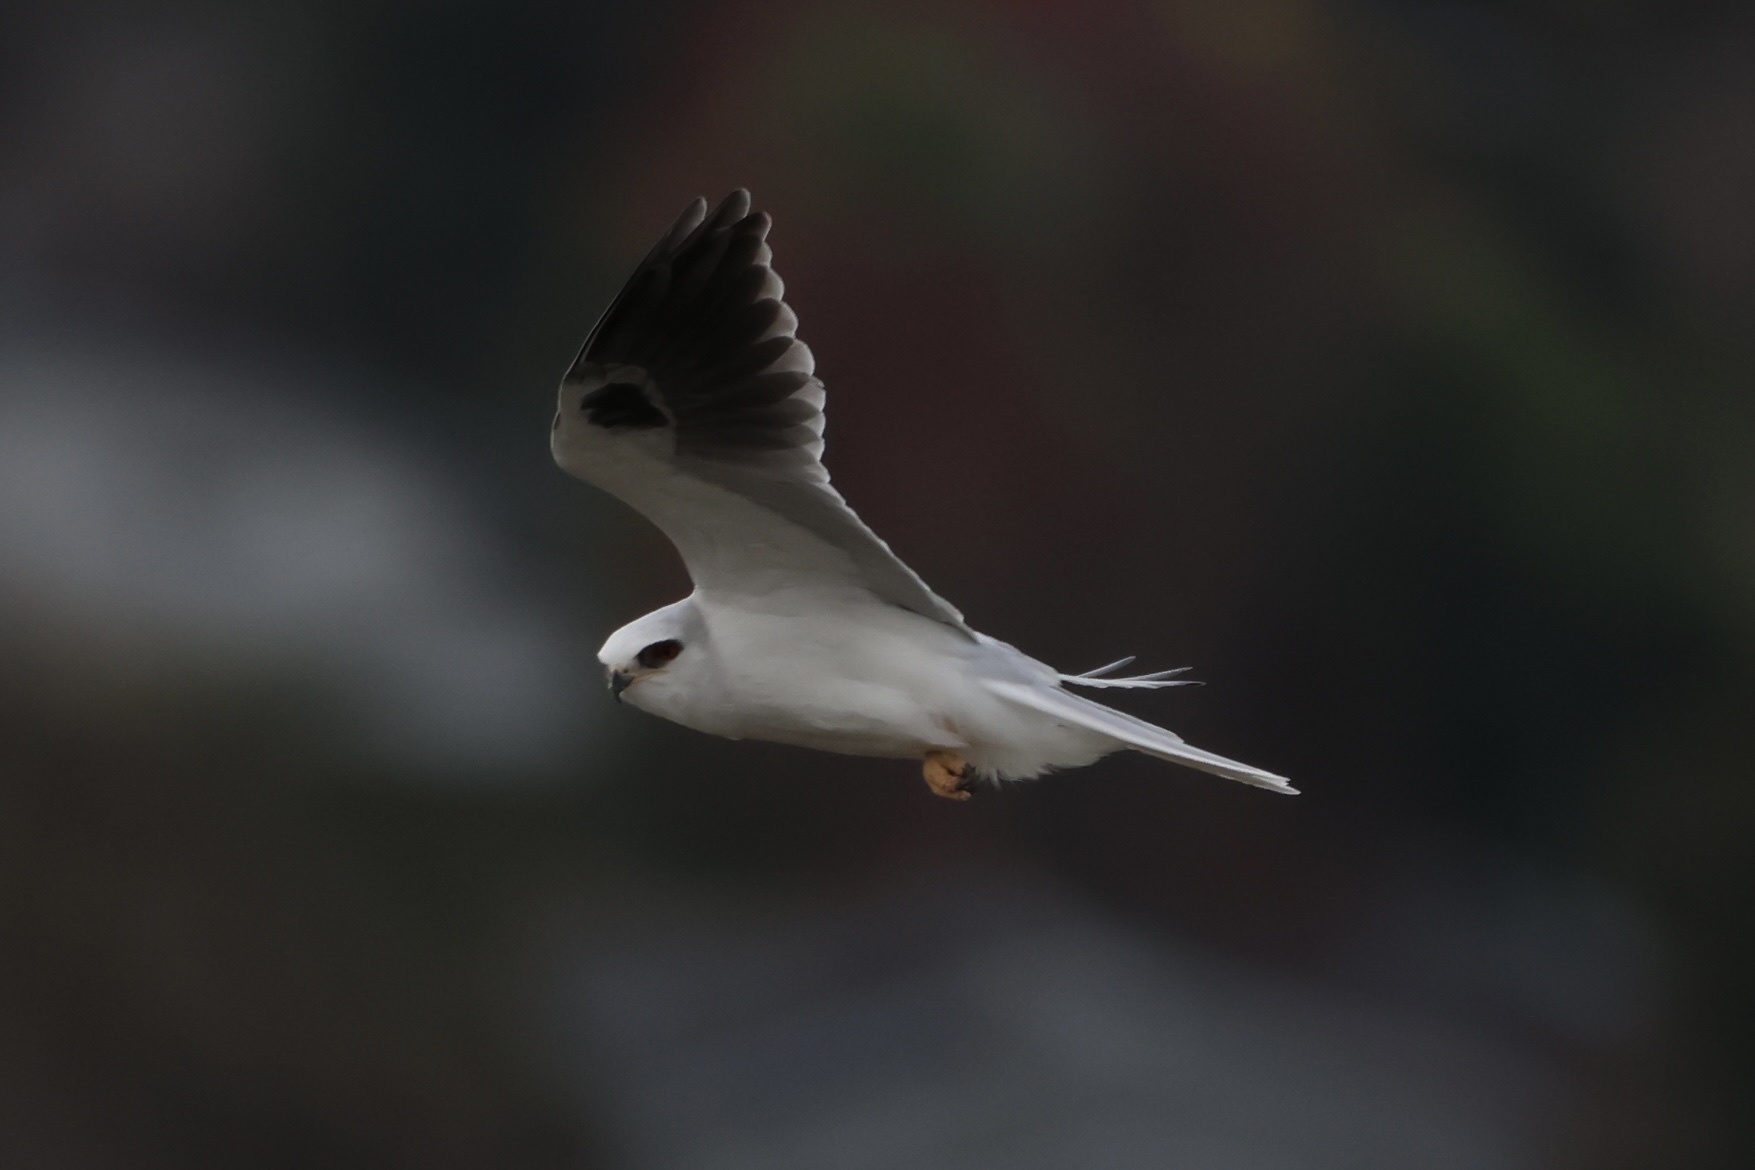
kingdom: Animalia
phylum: Chordata
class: Aves
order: Accipitriformes
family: Accipitridae
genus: Elanus
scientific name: Elanus leucurus
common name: White-tailed kite
